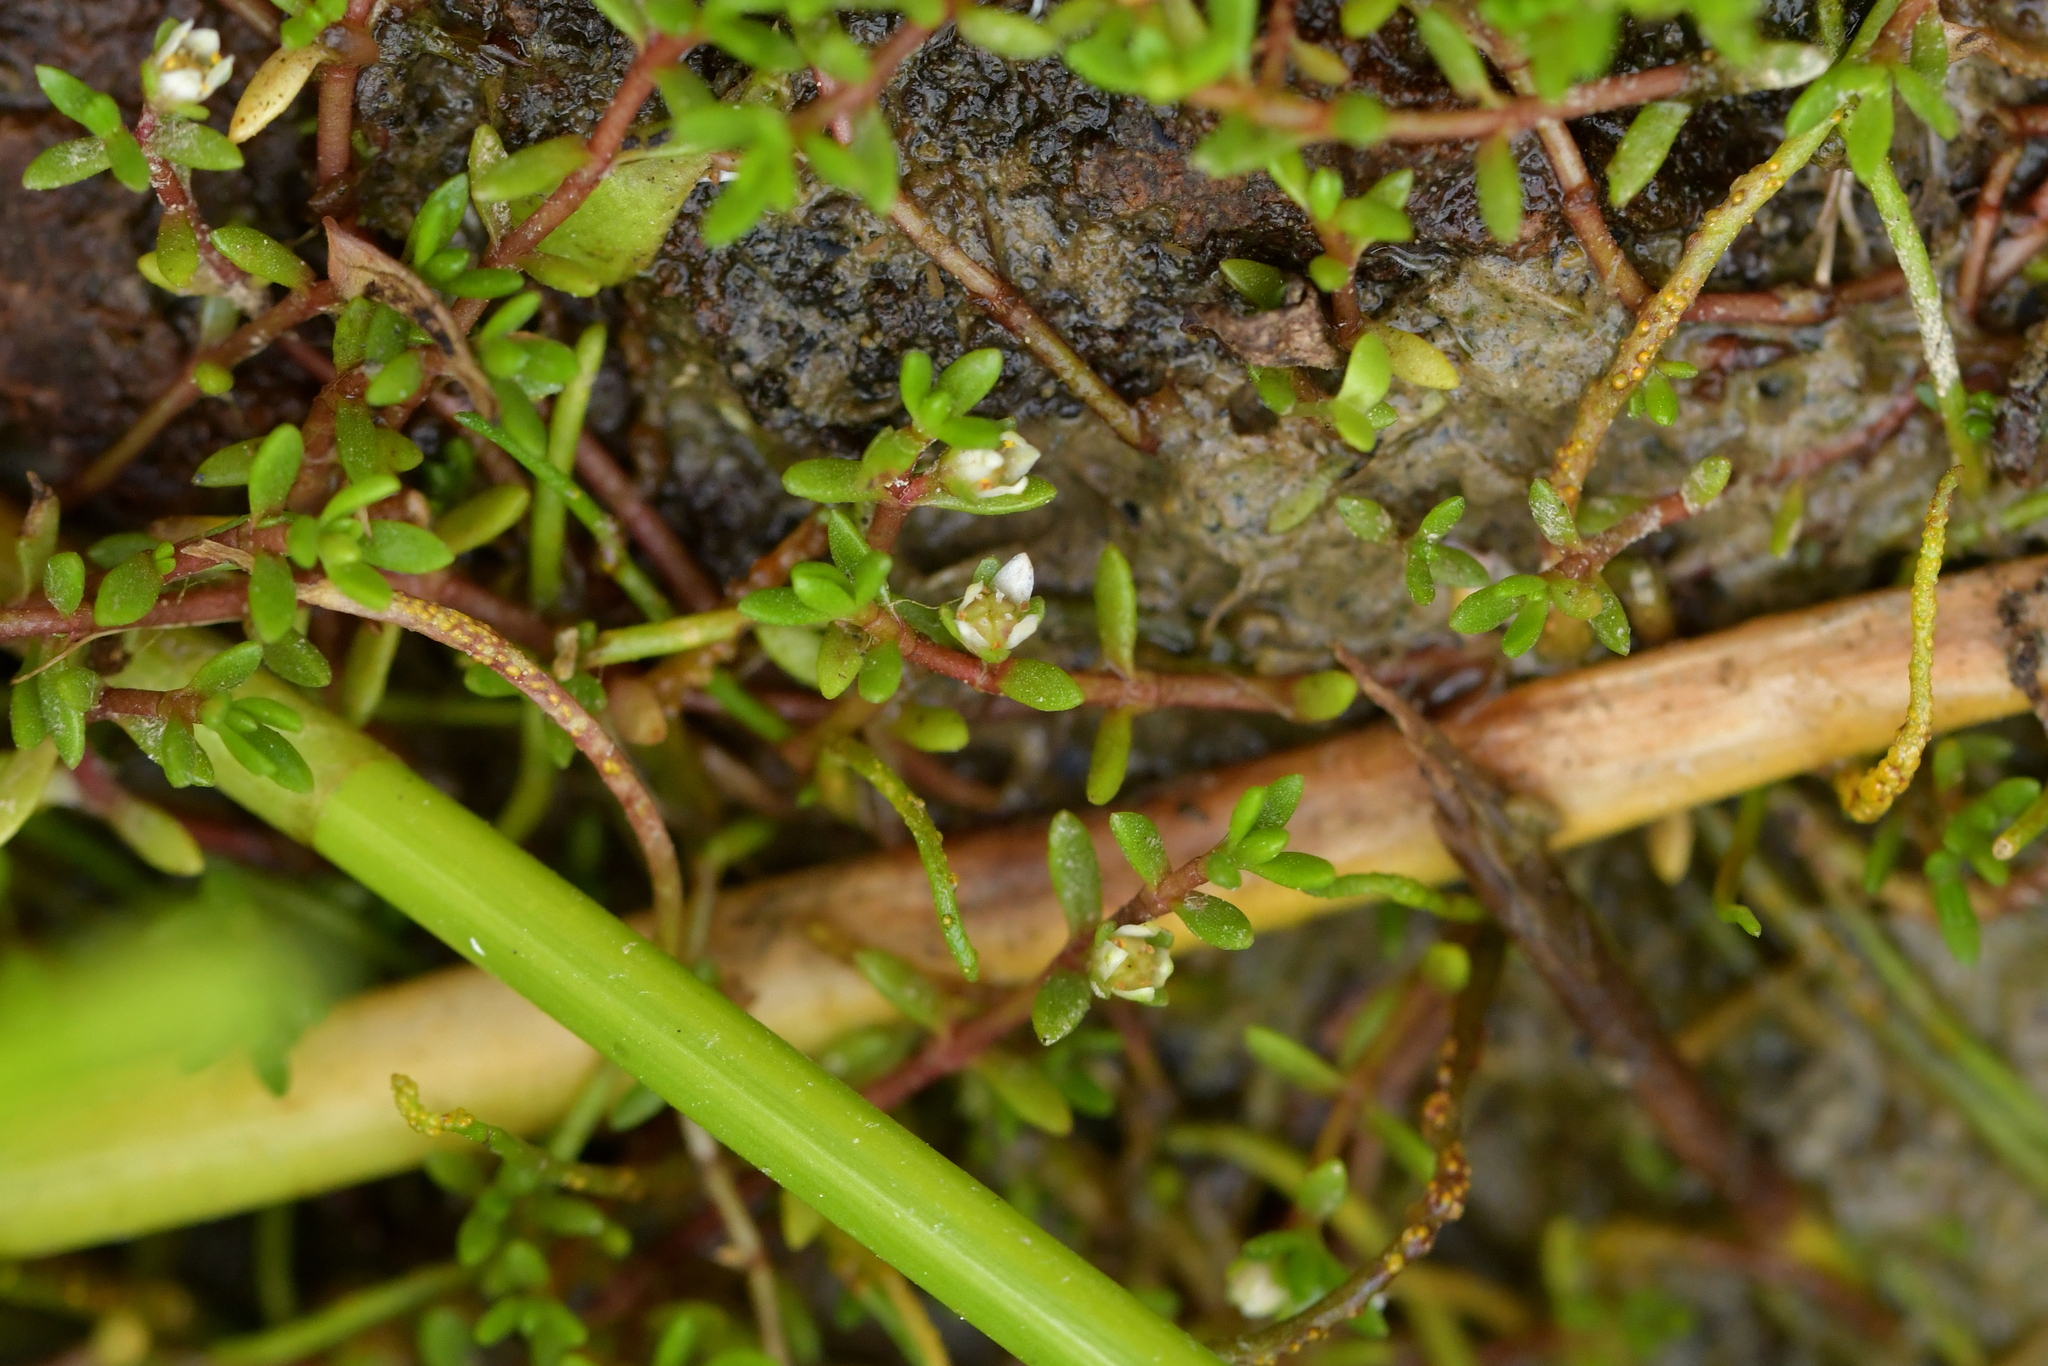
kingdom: Plantae
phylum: Tracheophyta
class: Magnoliopsida
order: Saxifragales
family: Crassulaceae
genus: Crassula
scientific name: Crassula sinclairii
